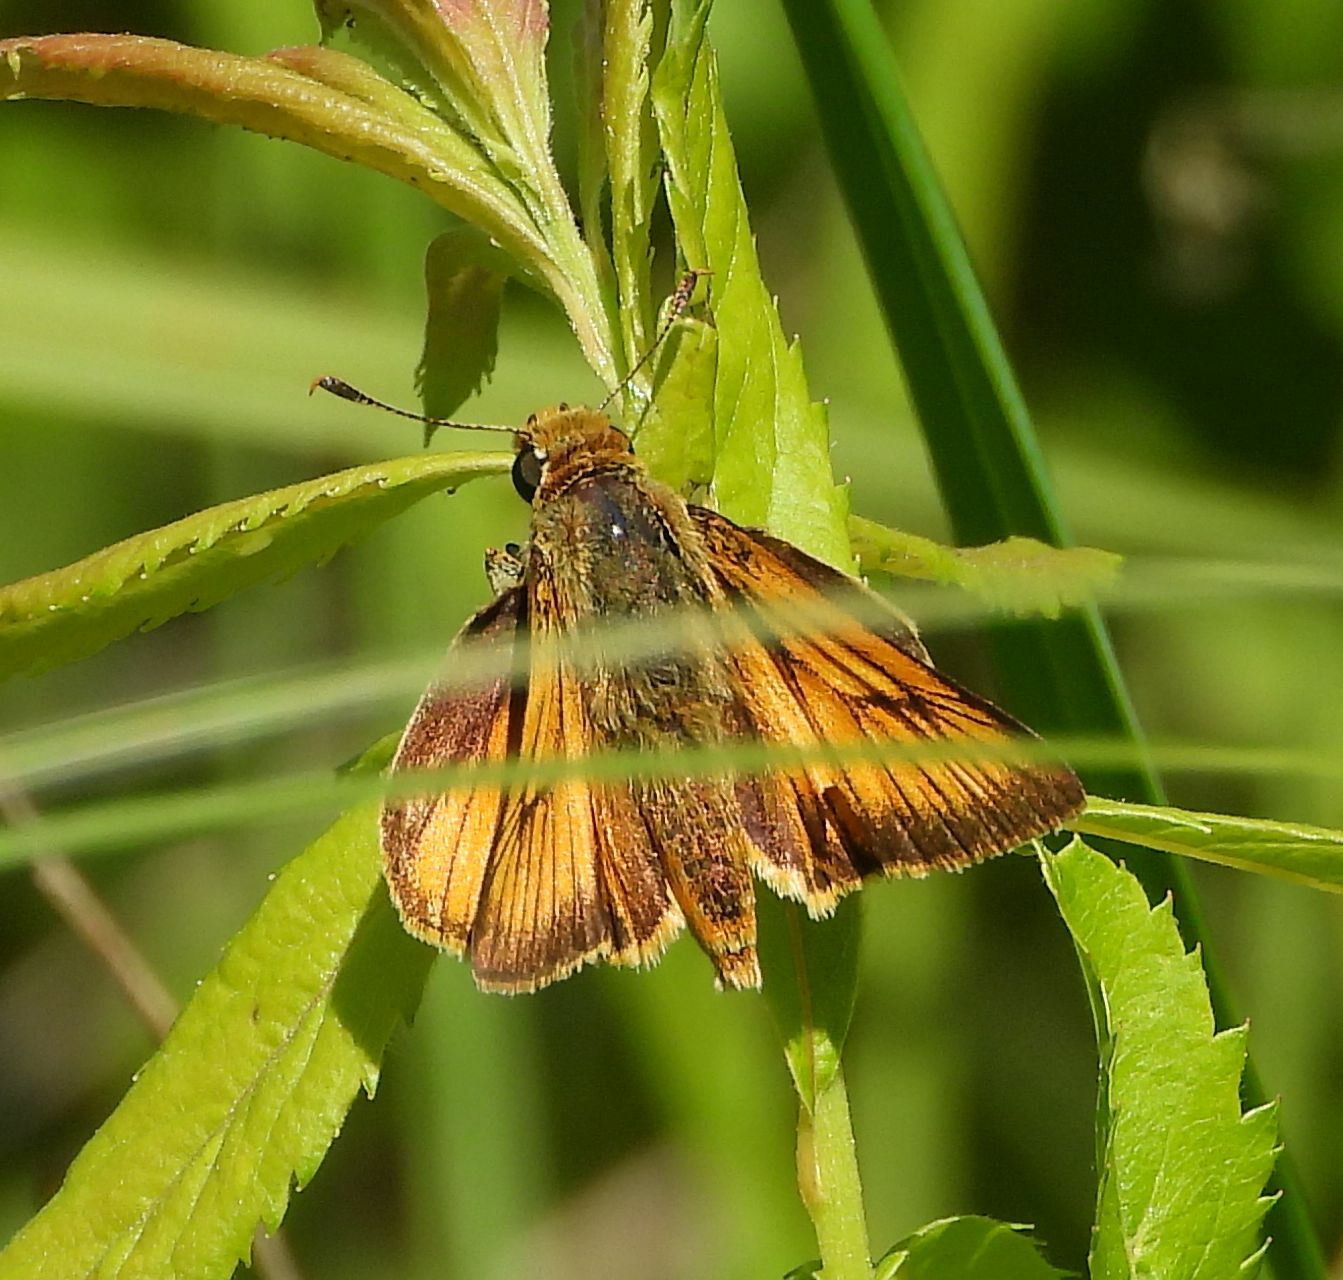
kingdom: Animalia
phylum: Arthropoda
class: Insecta
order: Lepidoptera
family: Hesperiidae
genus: Atrytone
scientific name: Atrytone delaware
